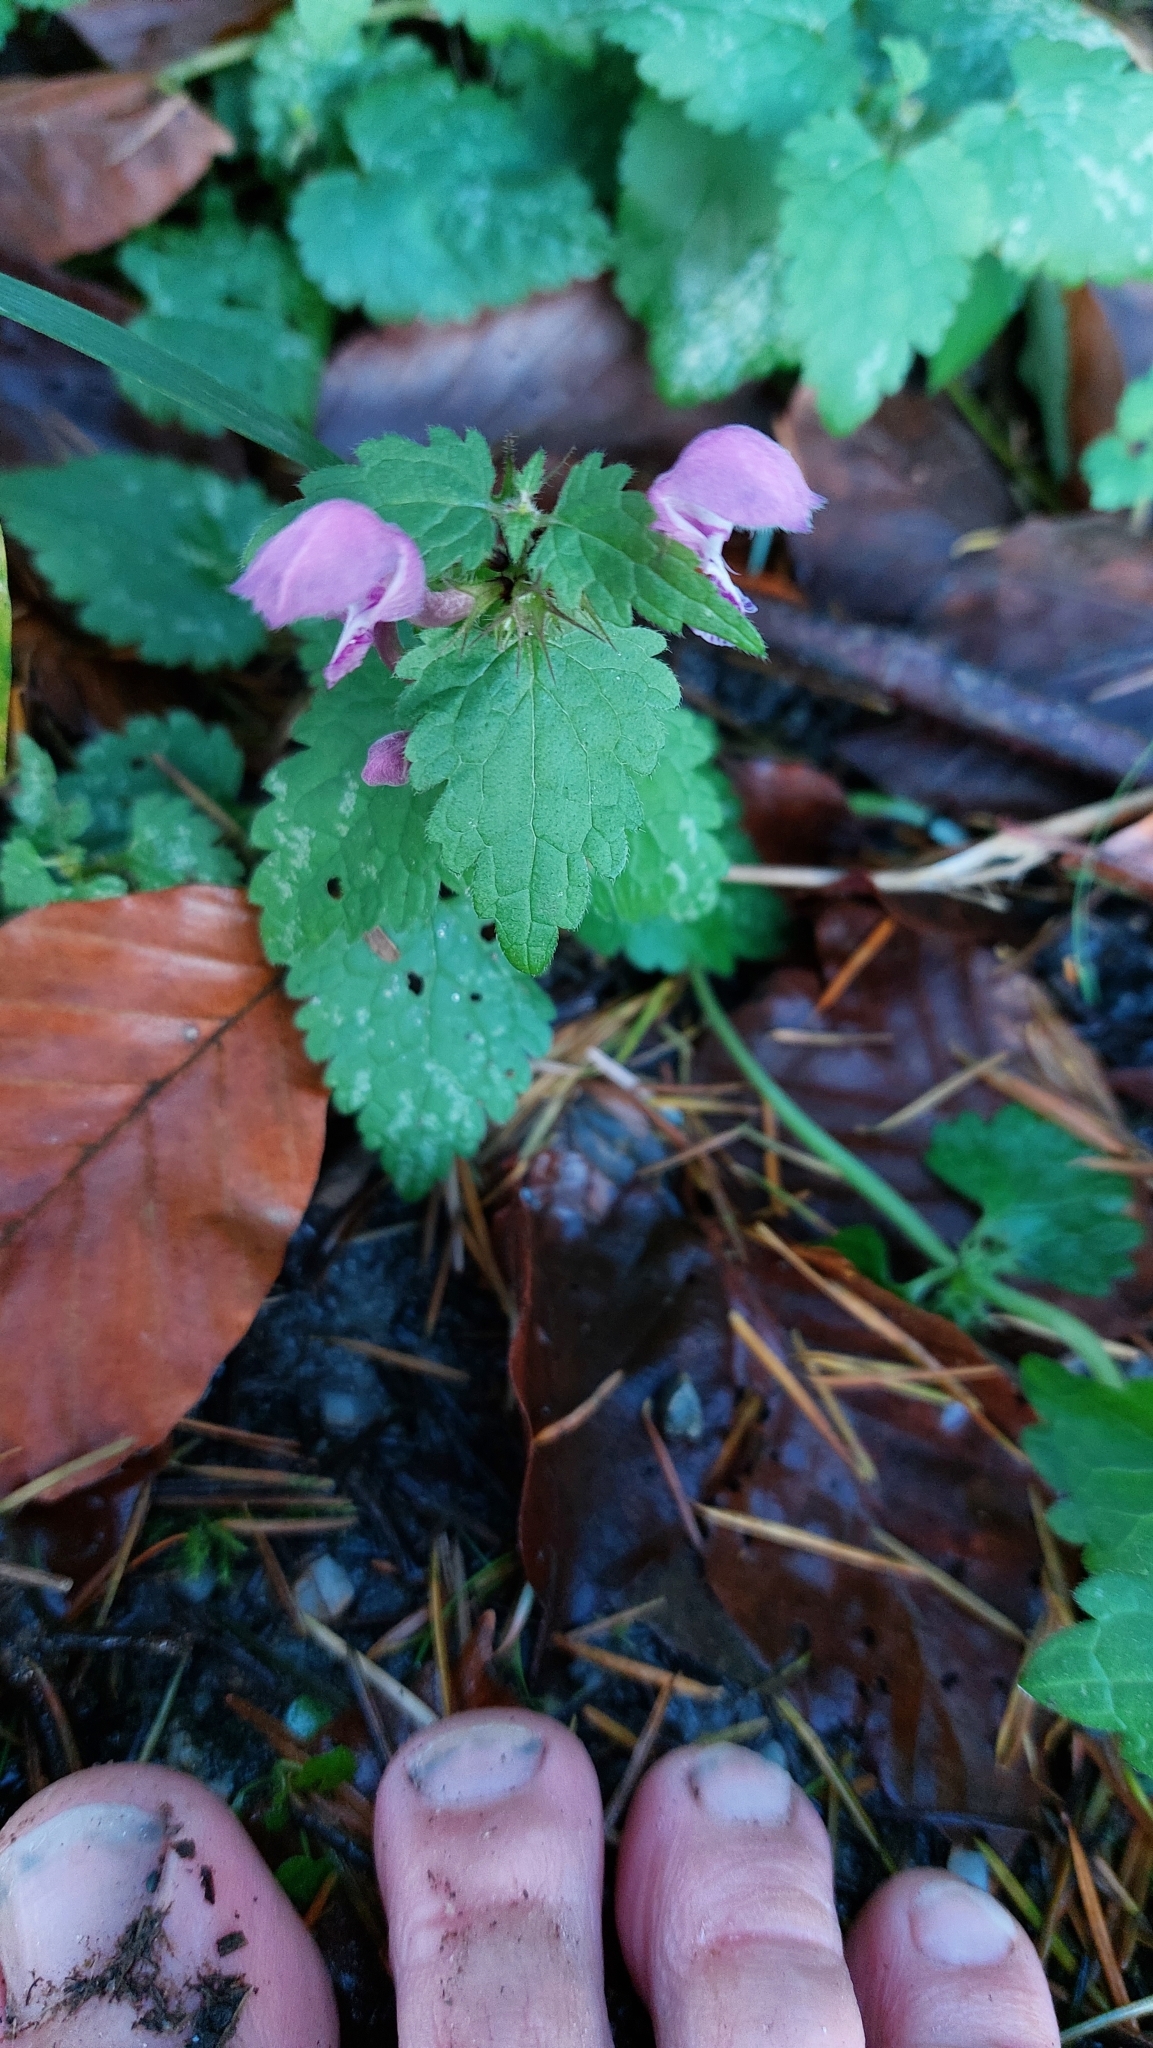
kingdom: Plantae
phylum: Tracheophyta
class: Magnoliopsida
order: Lamiales
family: Lamiaceae
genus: Lamium
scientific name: Lamium maculatum
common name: Spotted dead-nettle
